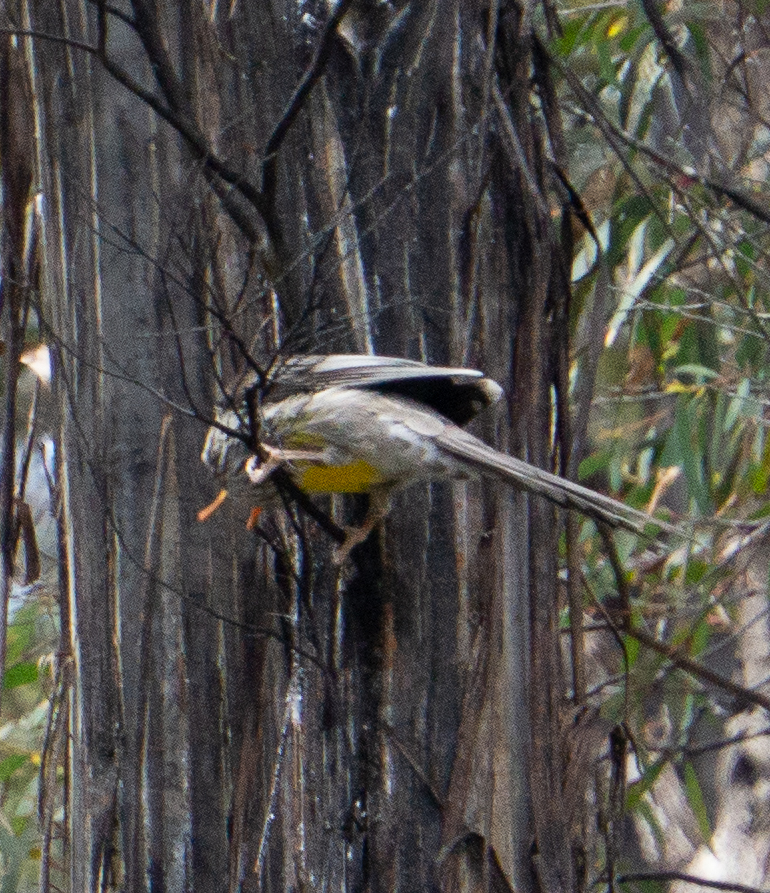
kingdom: Animalia
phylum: Chordata
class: Aves
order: Passeriformes
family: Meliphagidae
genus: Anthochaera
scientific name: Anthochaera paradoxa
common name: Yellow wattlebird
